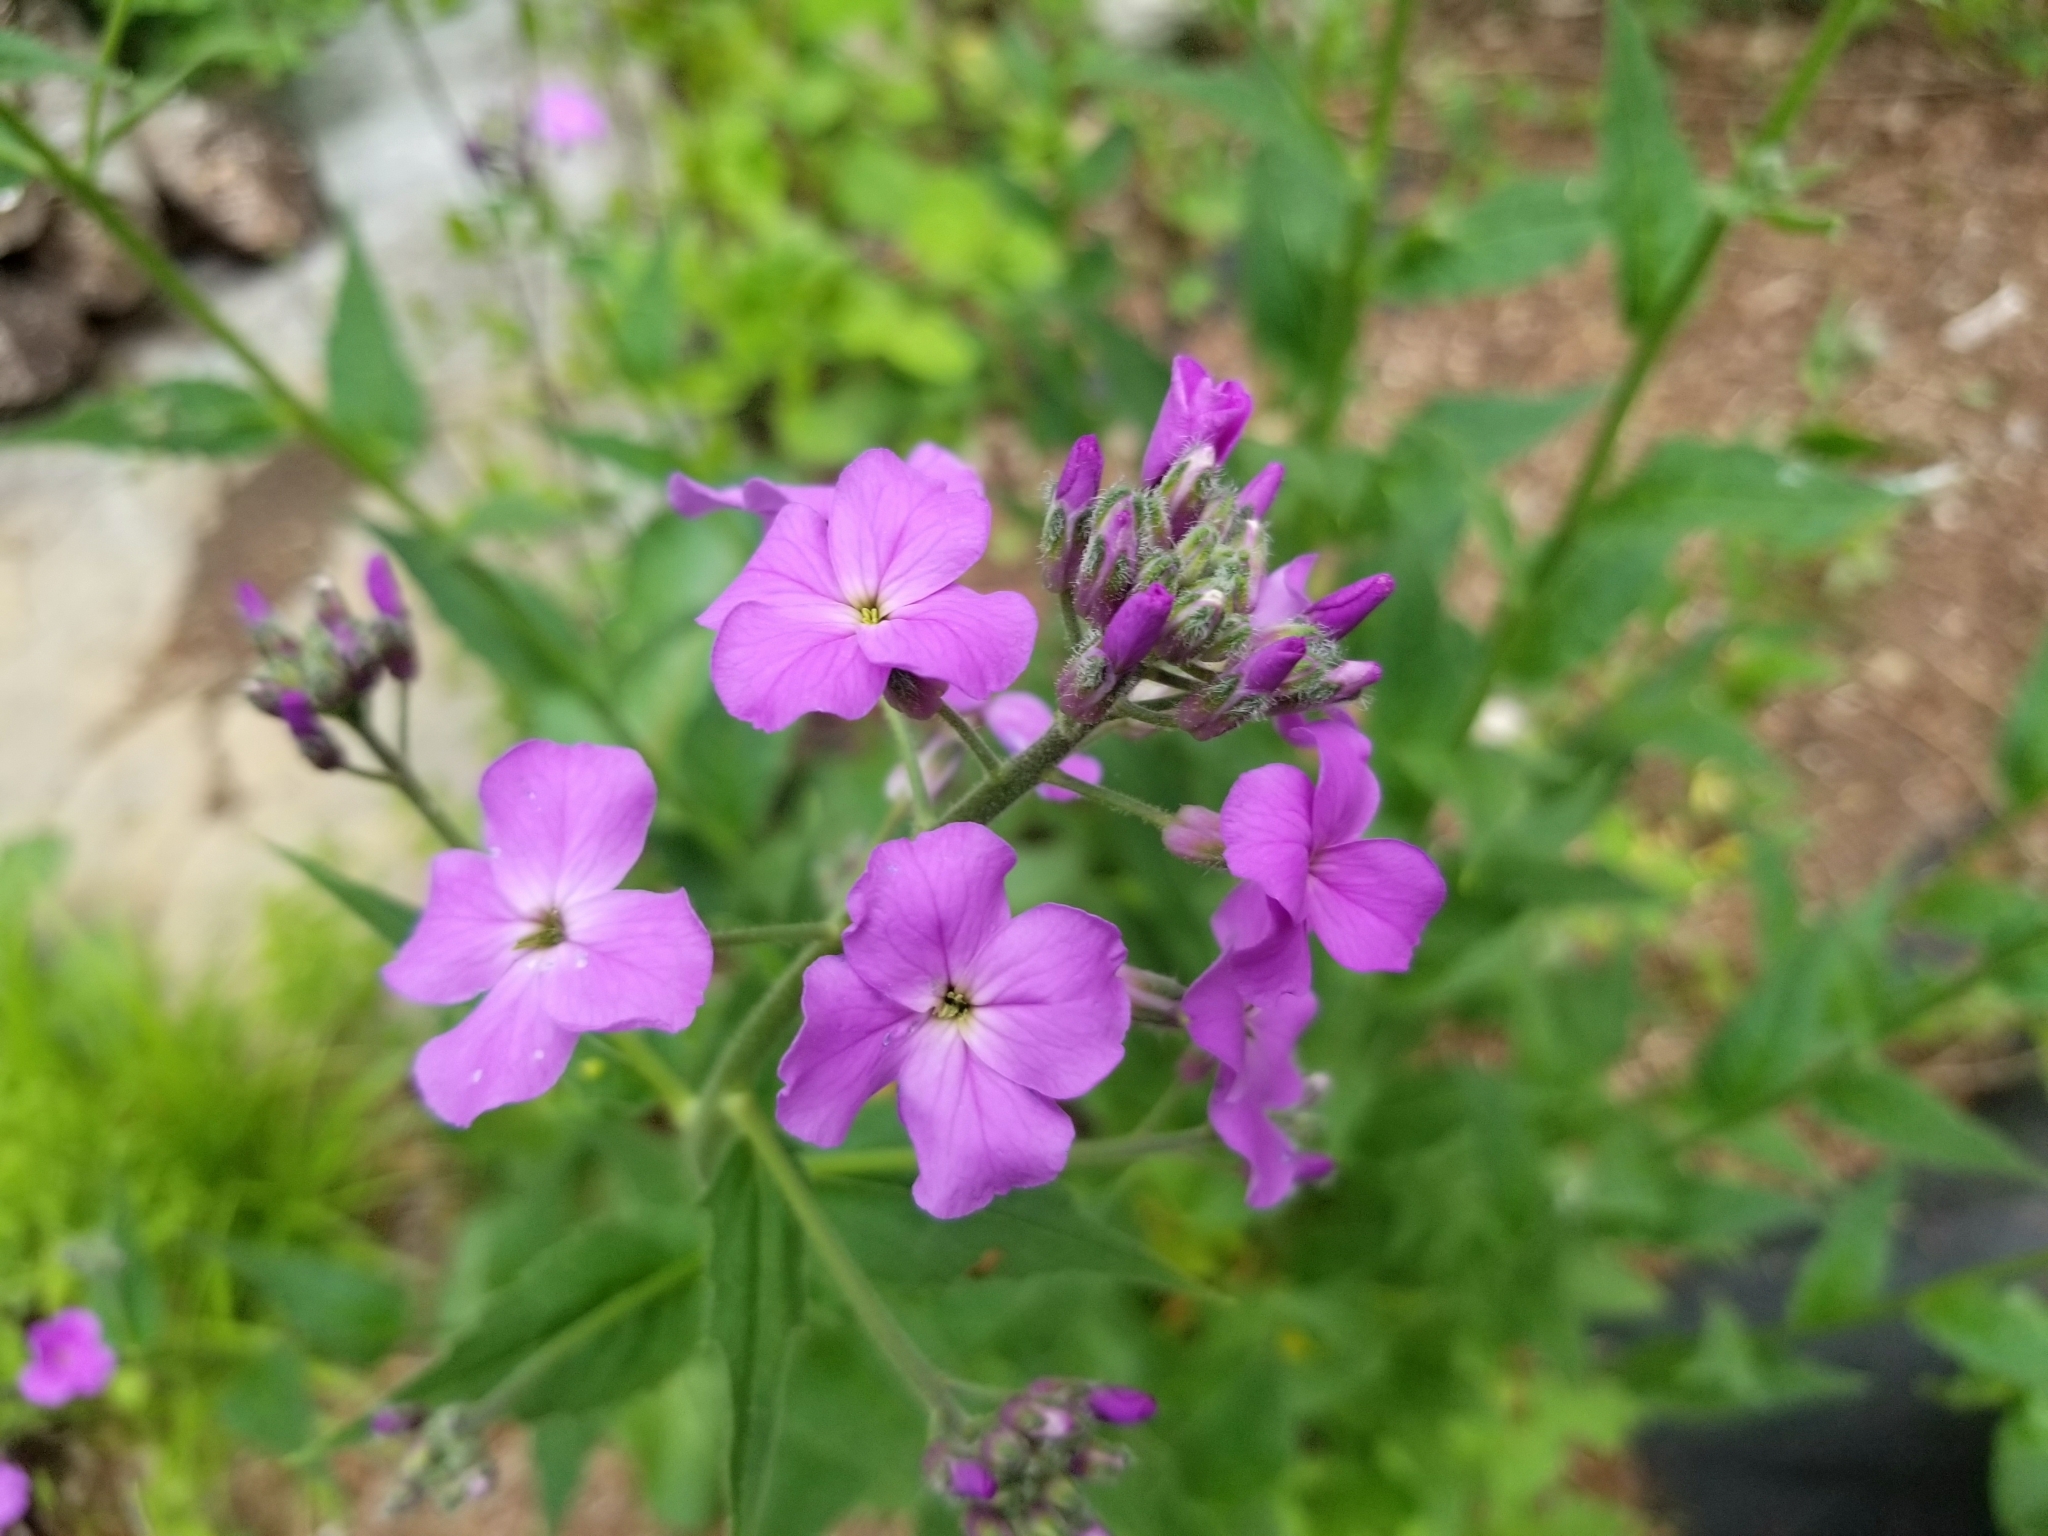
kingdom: Plantae
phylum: Tracheophyta
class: Magnoliopsida
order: Brassicales
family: Brassicaceae
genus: Hesperis
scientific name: Hesperis matronalis
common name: Dame's-violet
